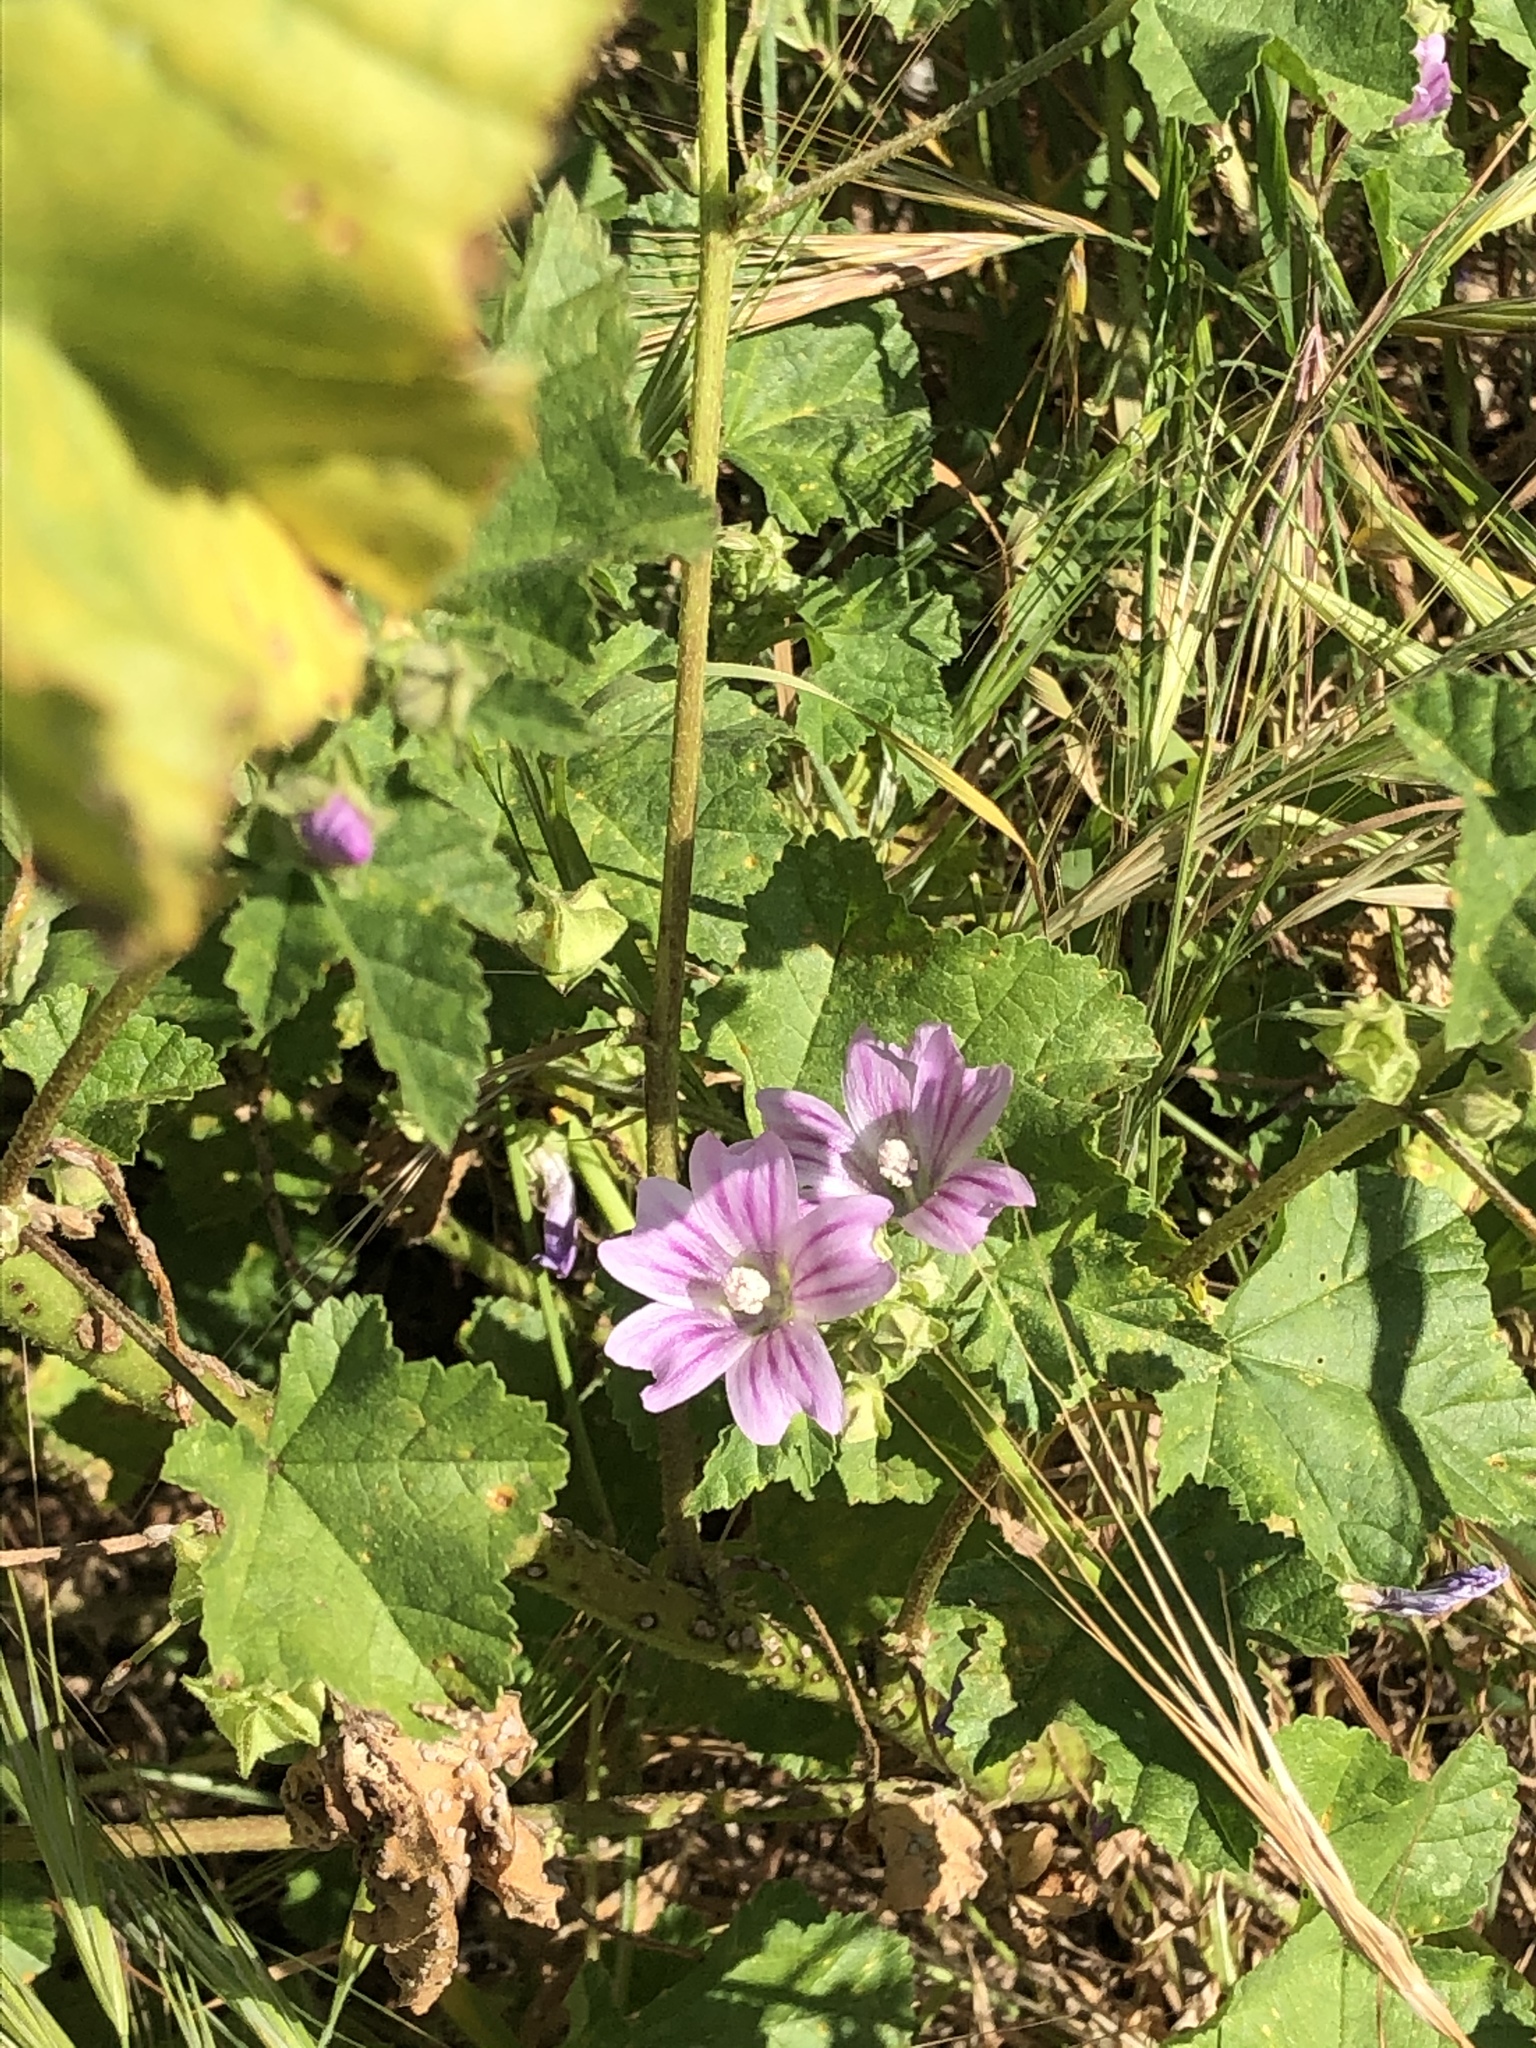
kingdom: Plantae
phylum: Tracheophyta
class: Magnoliopsida
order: Malvales
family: Malvaceae
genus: Malva
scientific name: Malva multiflora
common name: Cheeseweed
